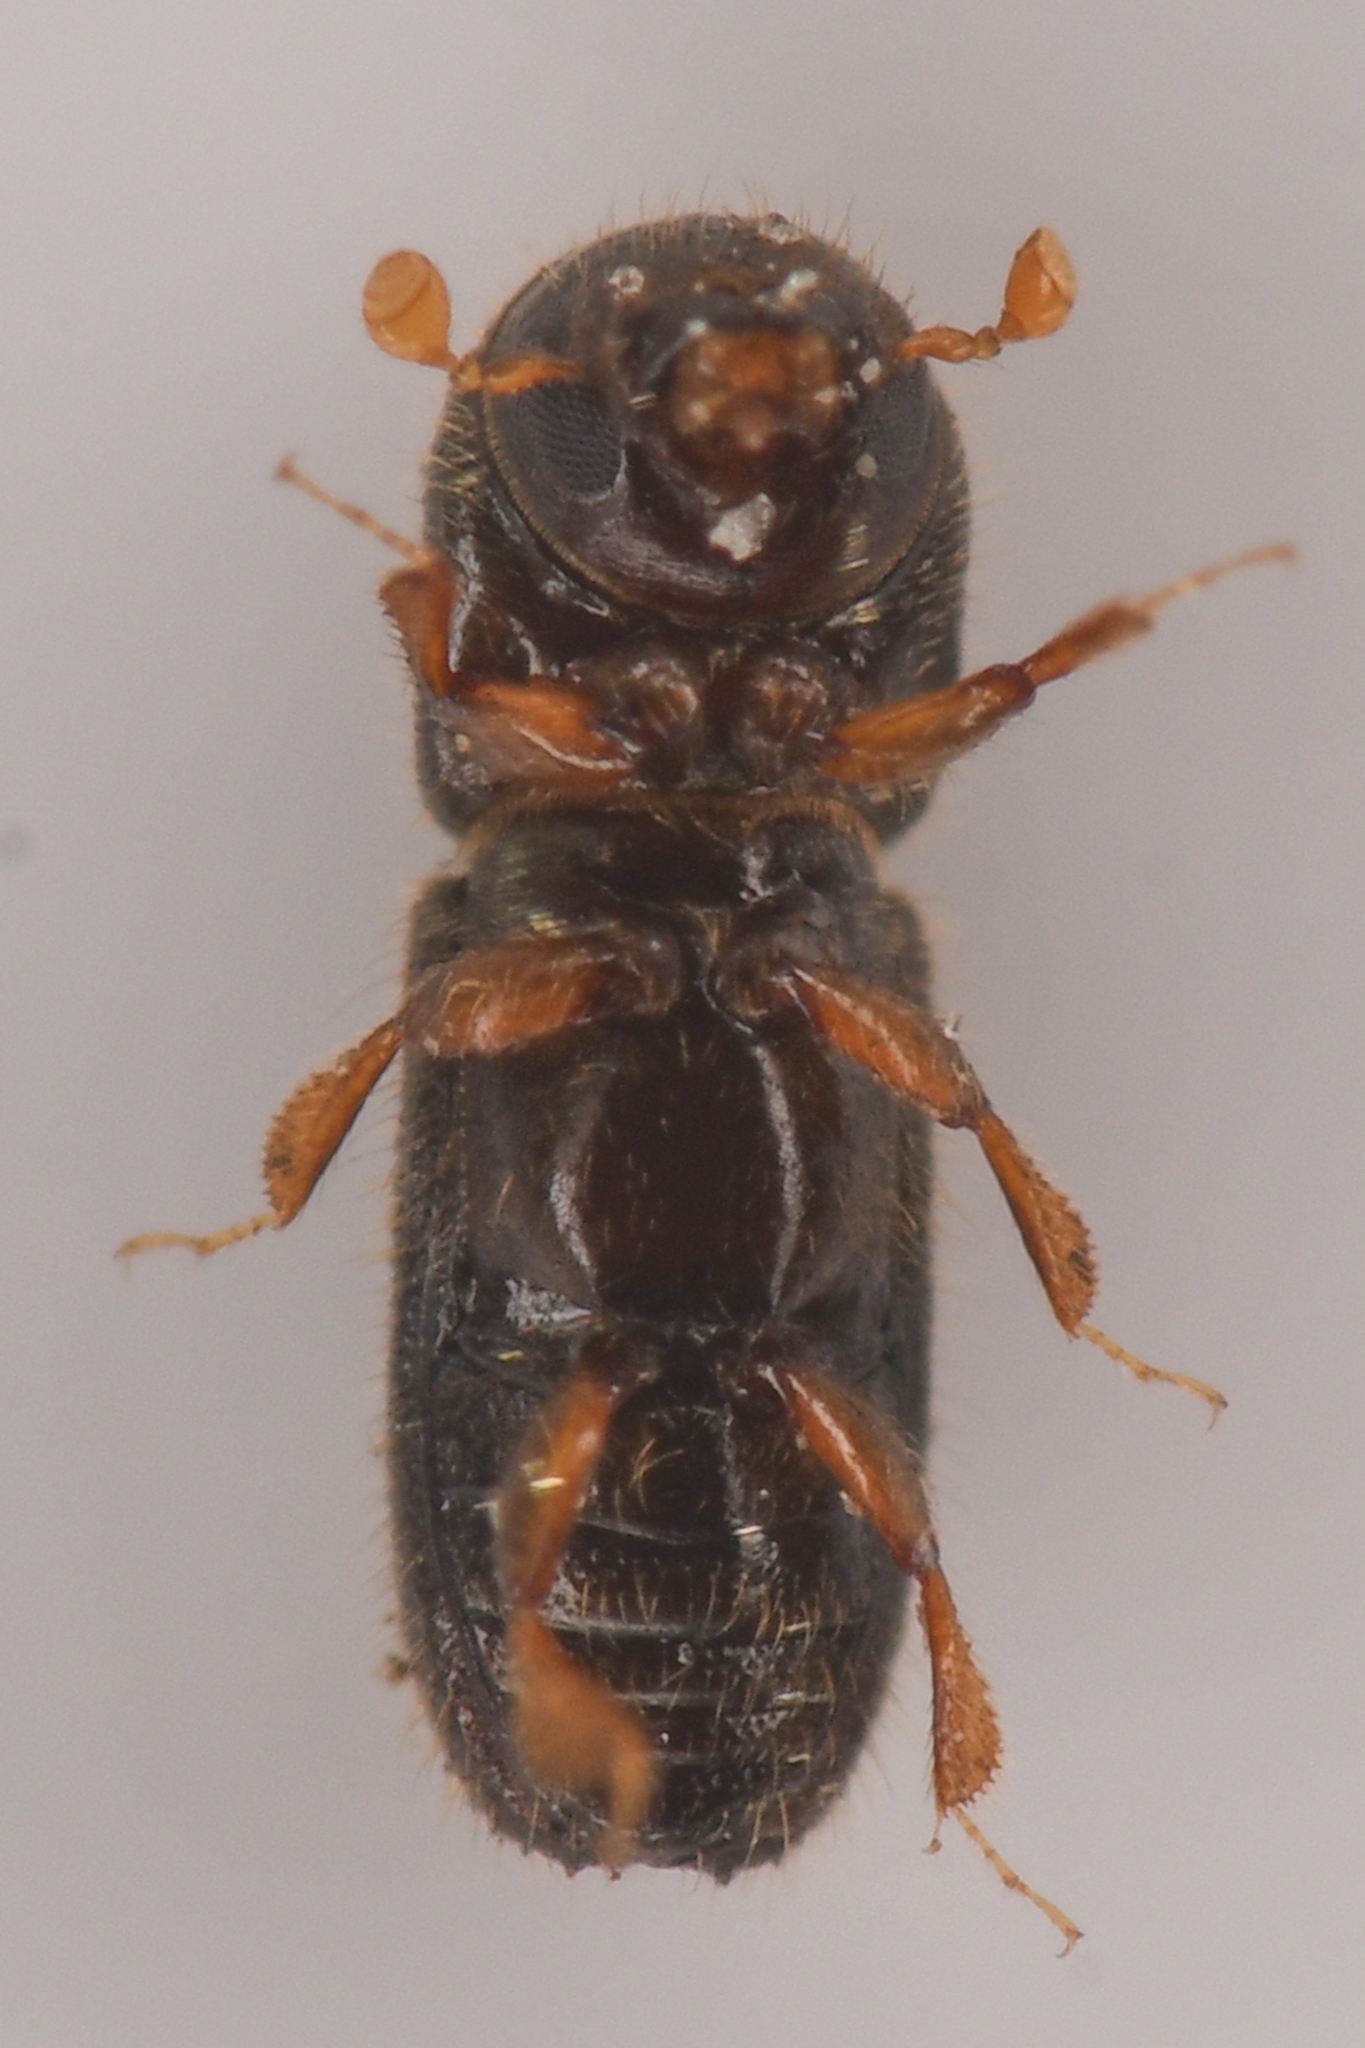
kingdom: Animalia
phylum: Arthropoda
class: Insecta
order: Coleoptera
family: Curculionidae
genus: Xyleborinus
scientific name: Xyleborinus saxesenii
